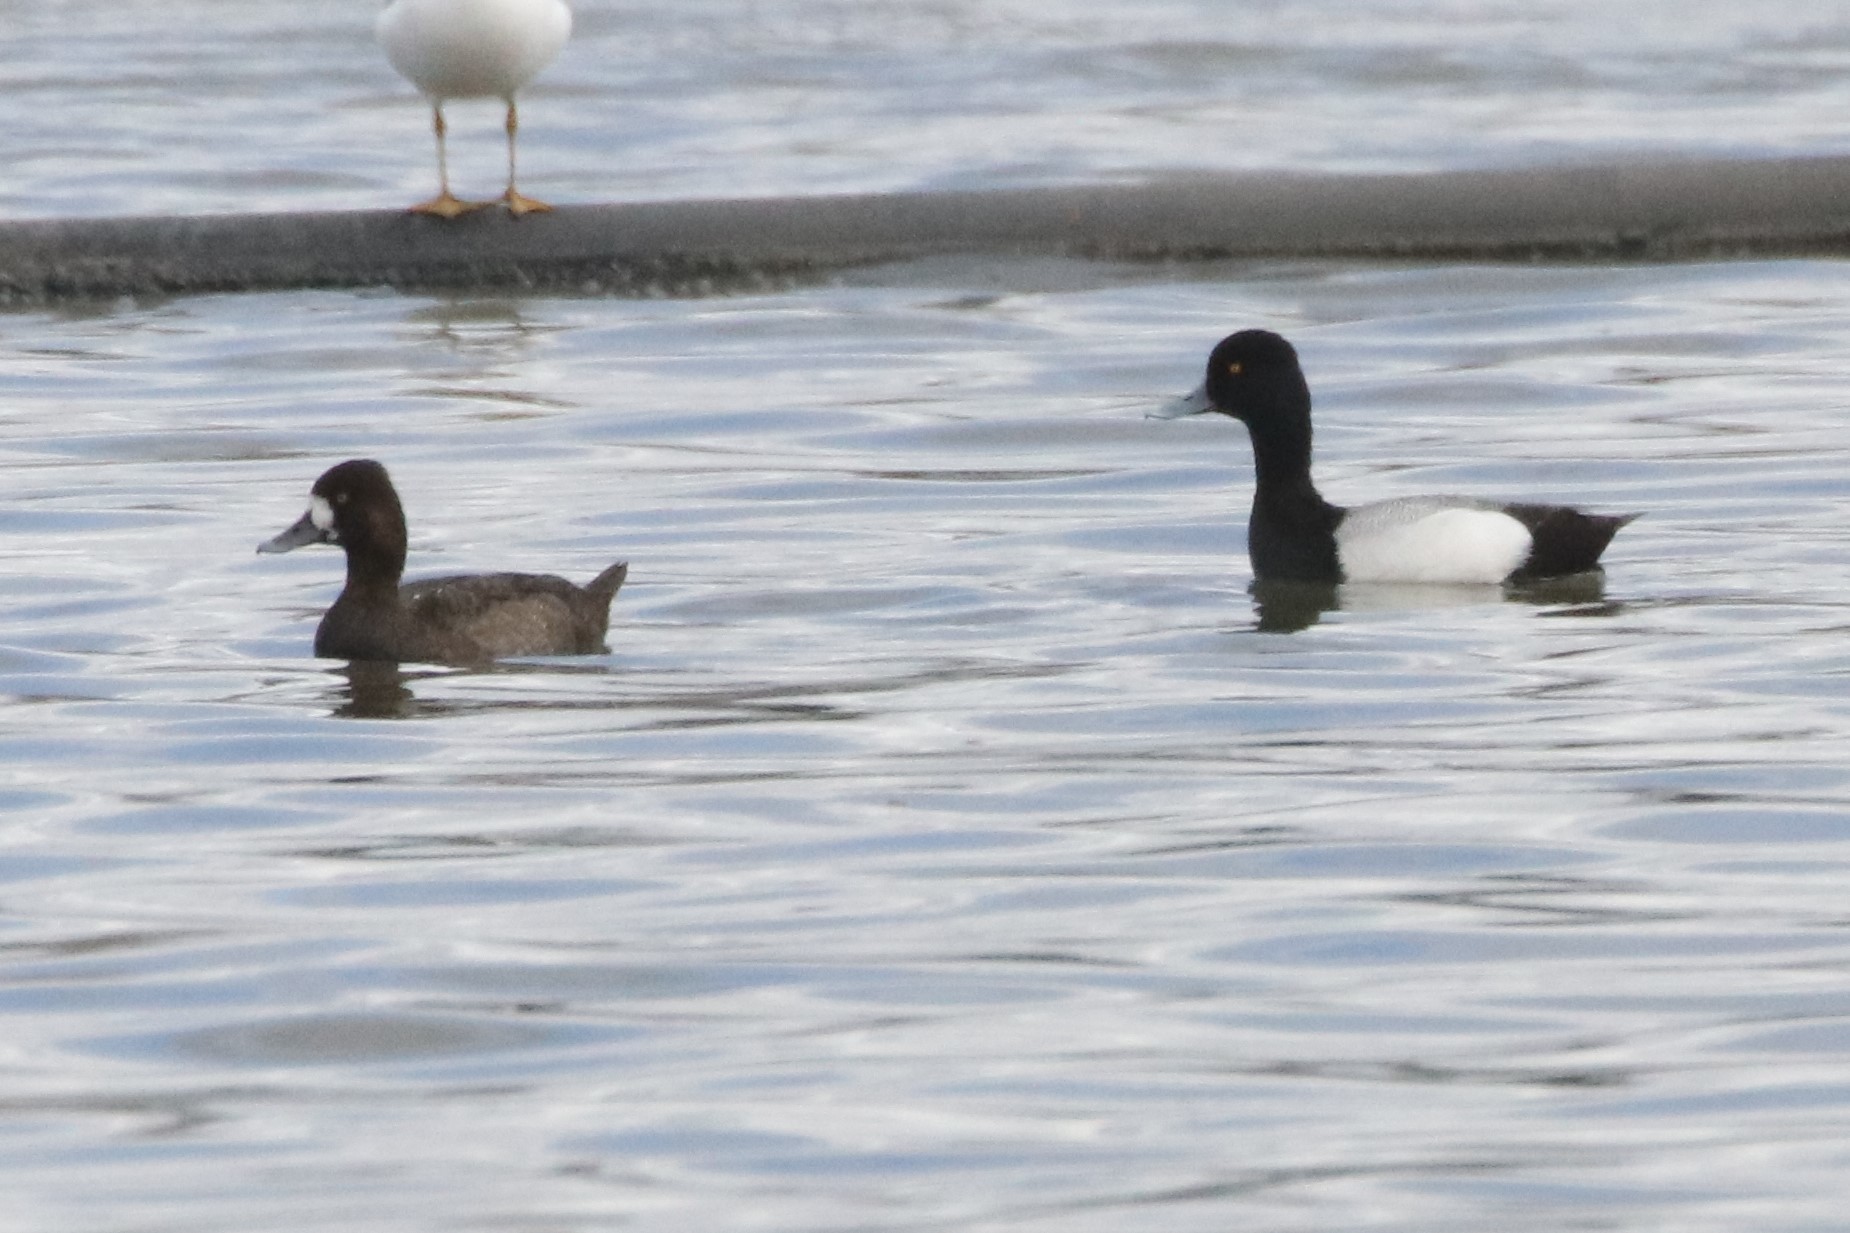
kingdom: Animalia
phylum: Chordata
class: Aves
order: Anseriformes
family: Anatidae
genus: Aythya
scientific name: Aythya affinis
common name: Lesser scaup
